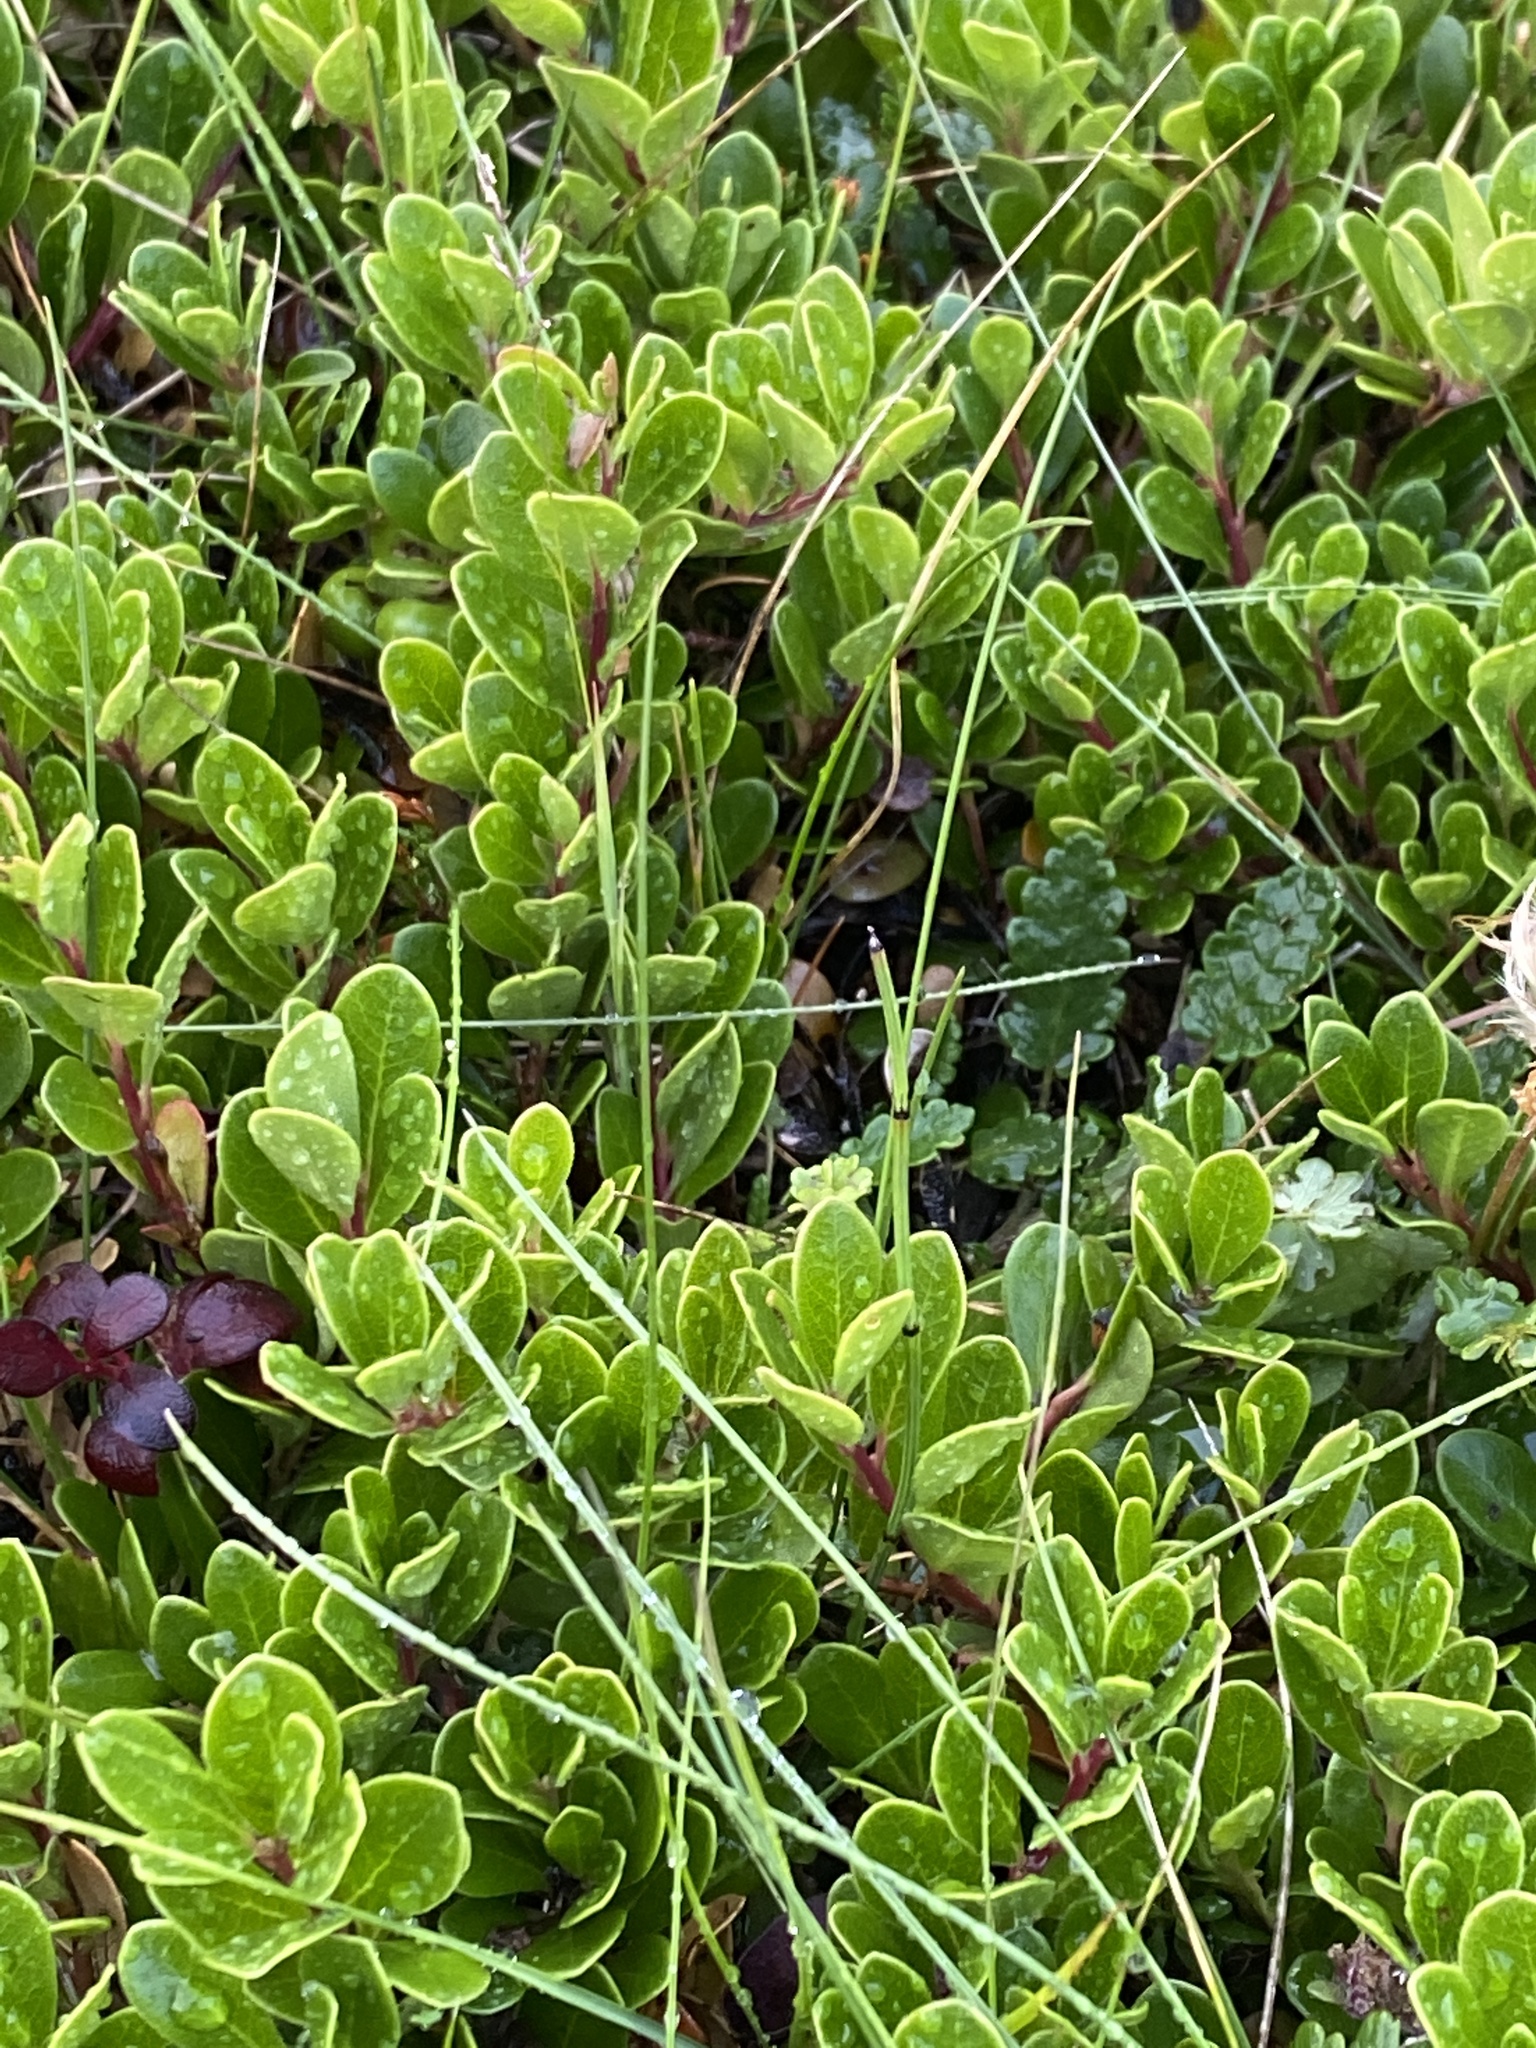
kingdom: Plantae
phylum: Tracheophyta
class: Magnoliopsida
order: Ericales
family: Ericaceae
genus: Arctostaphylos
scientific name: Arctostaphylos uva-ursi
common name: Bearberry
